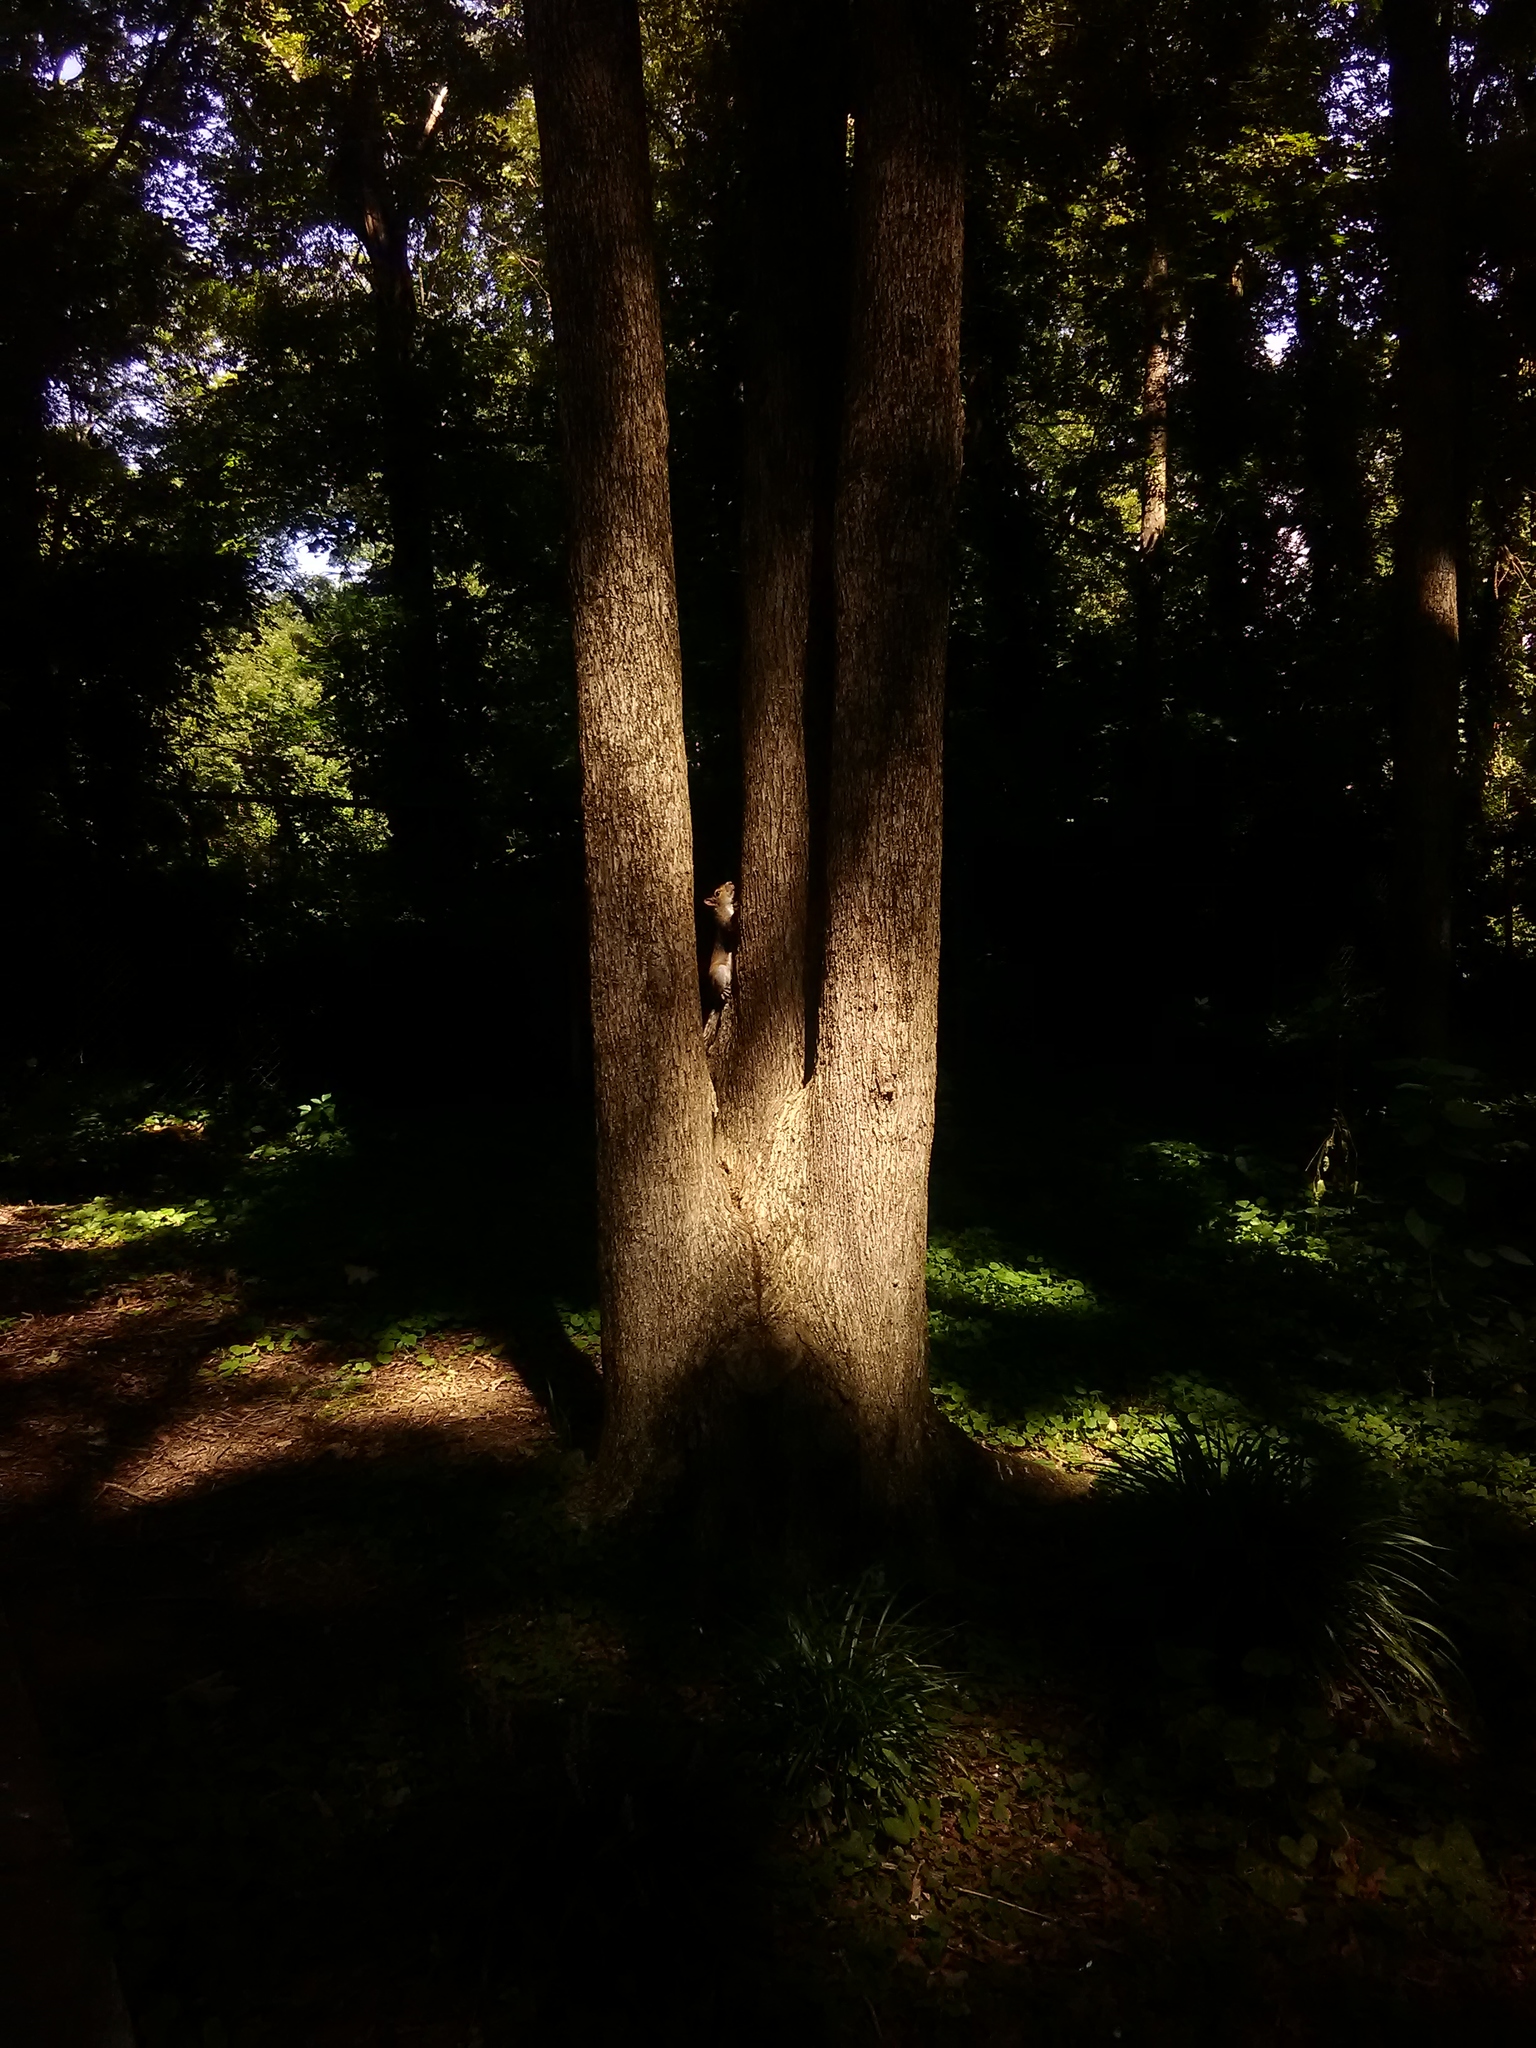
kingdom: Animalia
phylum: Chordata
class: Mammalia
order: Rodentia
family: Sciuridae
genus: Sciurus
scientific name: Sciurus carolinensis
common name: Eastern gray squirrel
